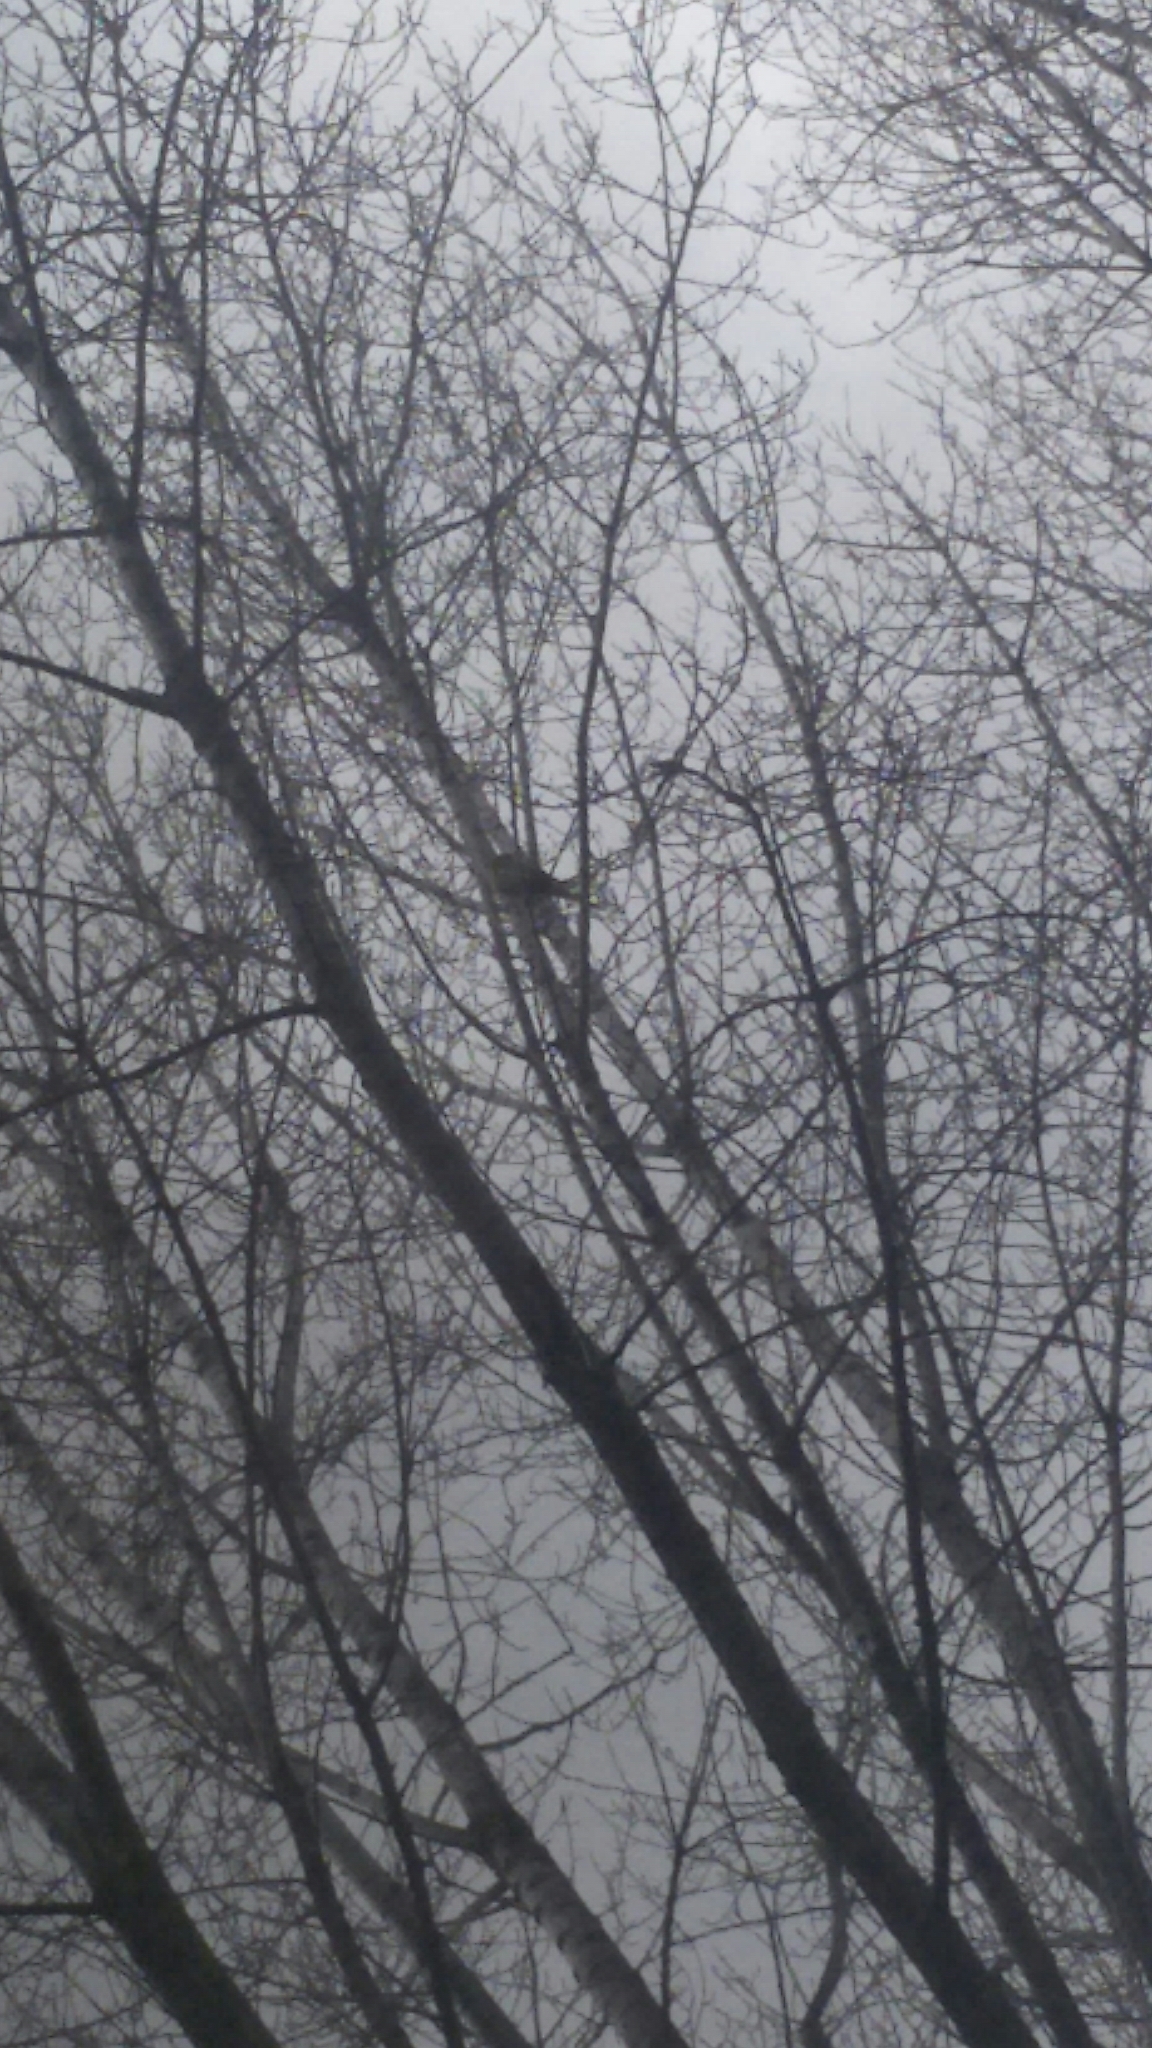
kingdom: Animalia
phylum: Chordata
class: Aves
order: Psittaciformes
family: Psittacidae
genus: Psittacula
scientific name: Psittacula krameri
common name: Rose-ringed parakeet
